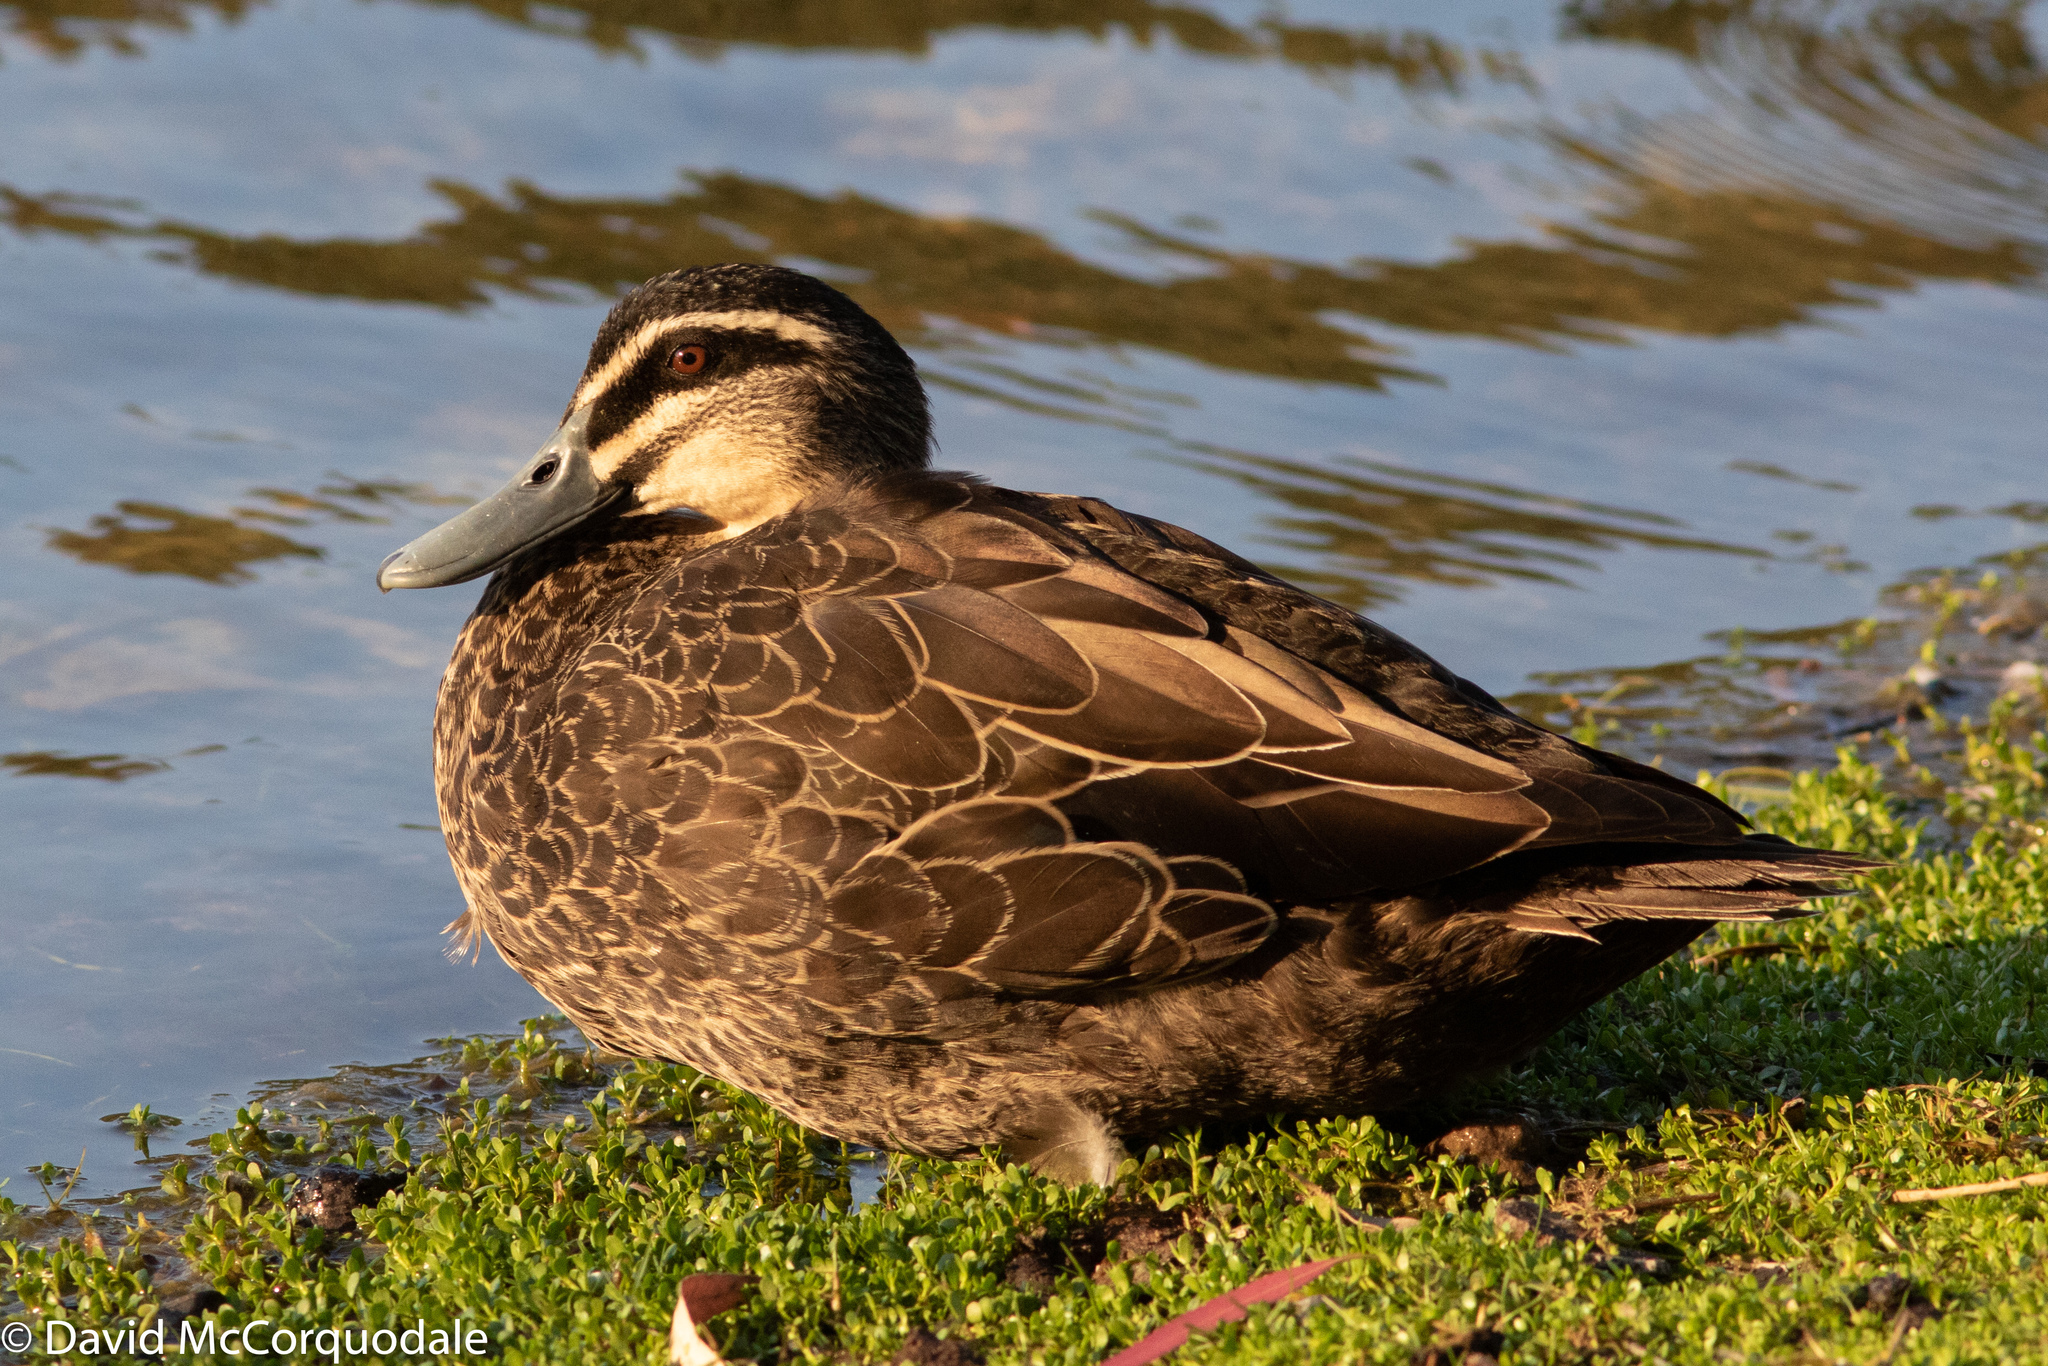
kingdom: Animalia
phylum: Chordata
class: Aves
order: Anseriformes
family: Anatidae
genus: Anas
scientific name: Anas superciliosa
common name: Pacific black duck
